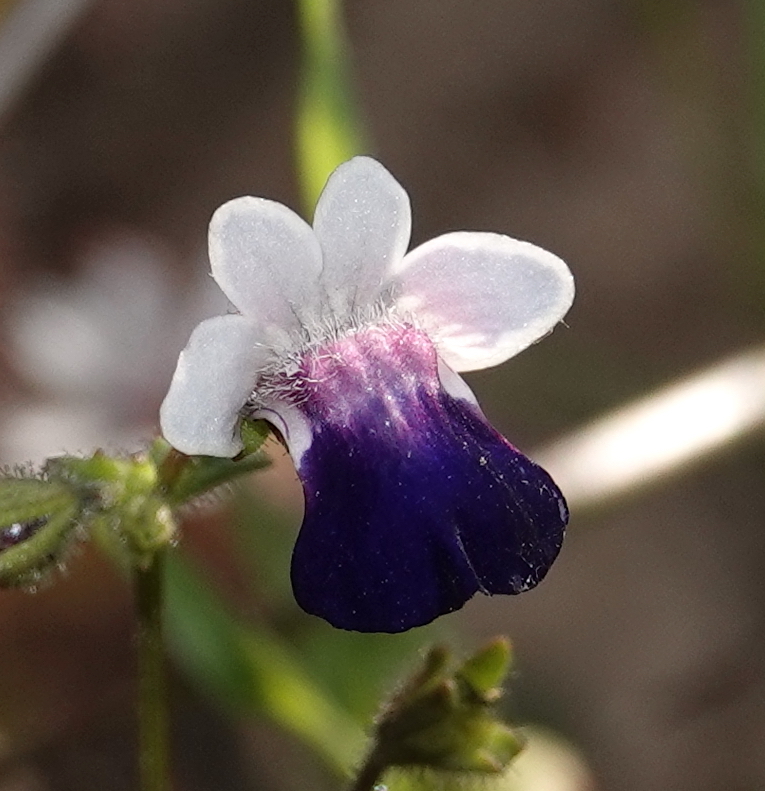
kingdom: Plantae
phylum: Tracheophyta
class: Magnoliopsida
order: Lamiales
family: Scrophulariaceae
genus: Nemesia
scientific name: Nemesia barbata
